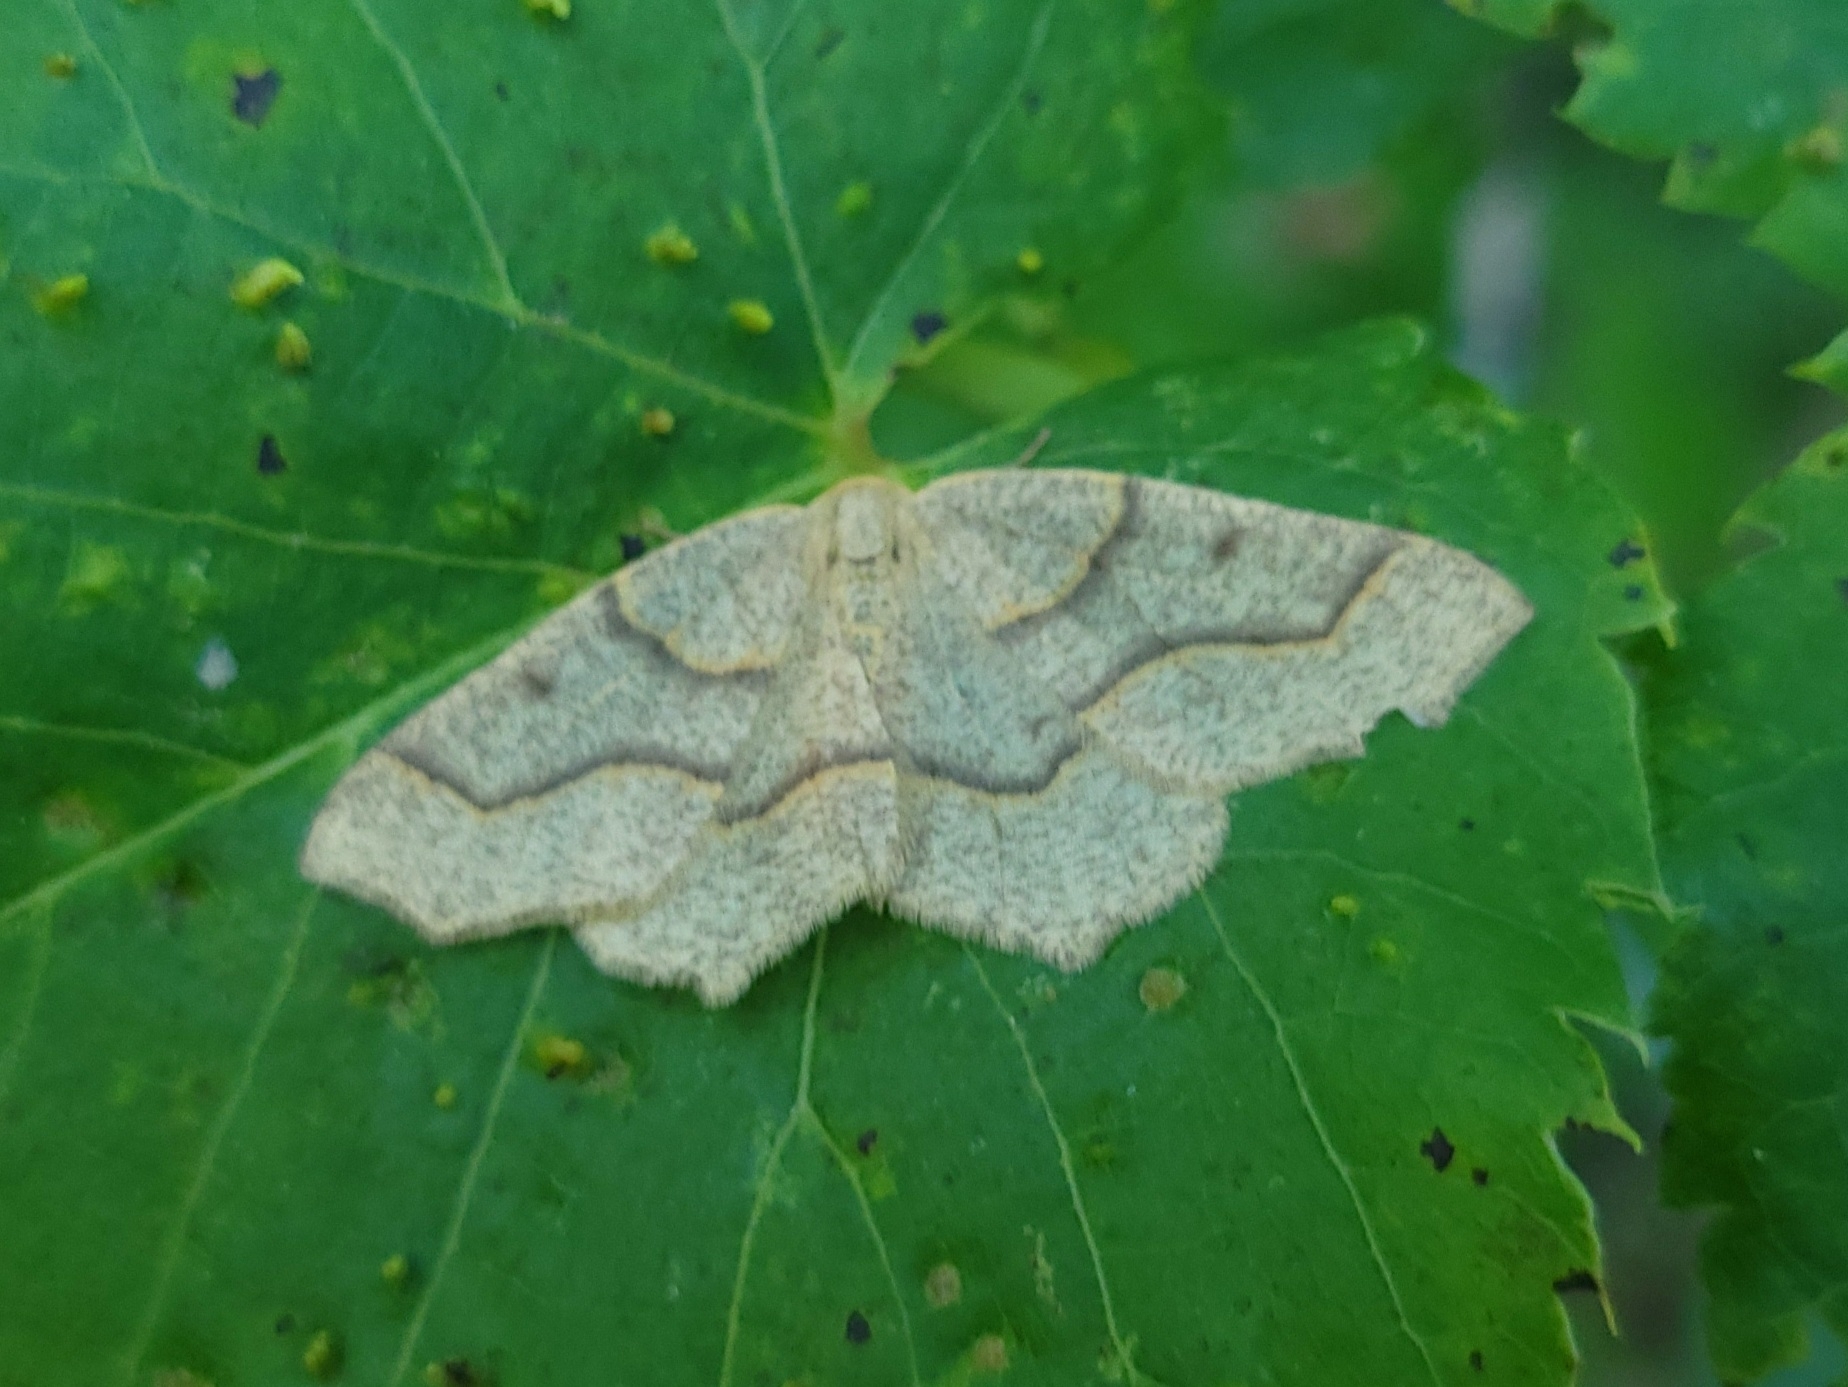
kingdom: Animalia
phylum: Arthropoda
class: Insecta
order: Lepidoptera
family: Geometridae
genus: Lambdina
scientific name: Lambdina fiscellaria
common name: Hemlock looper
